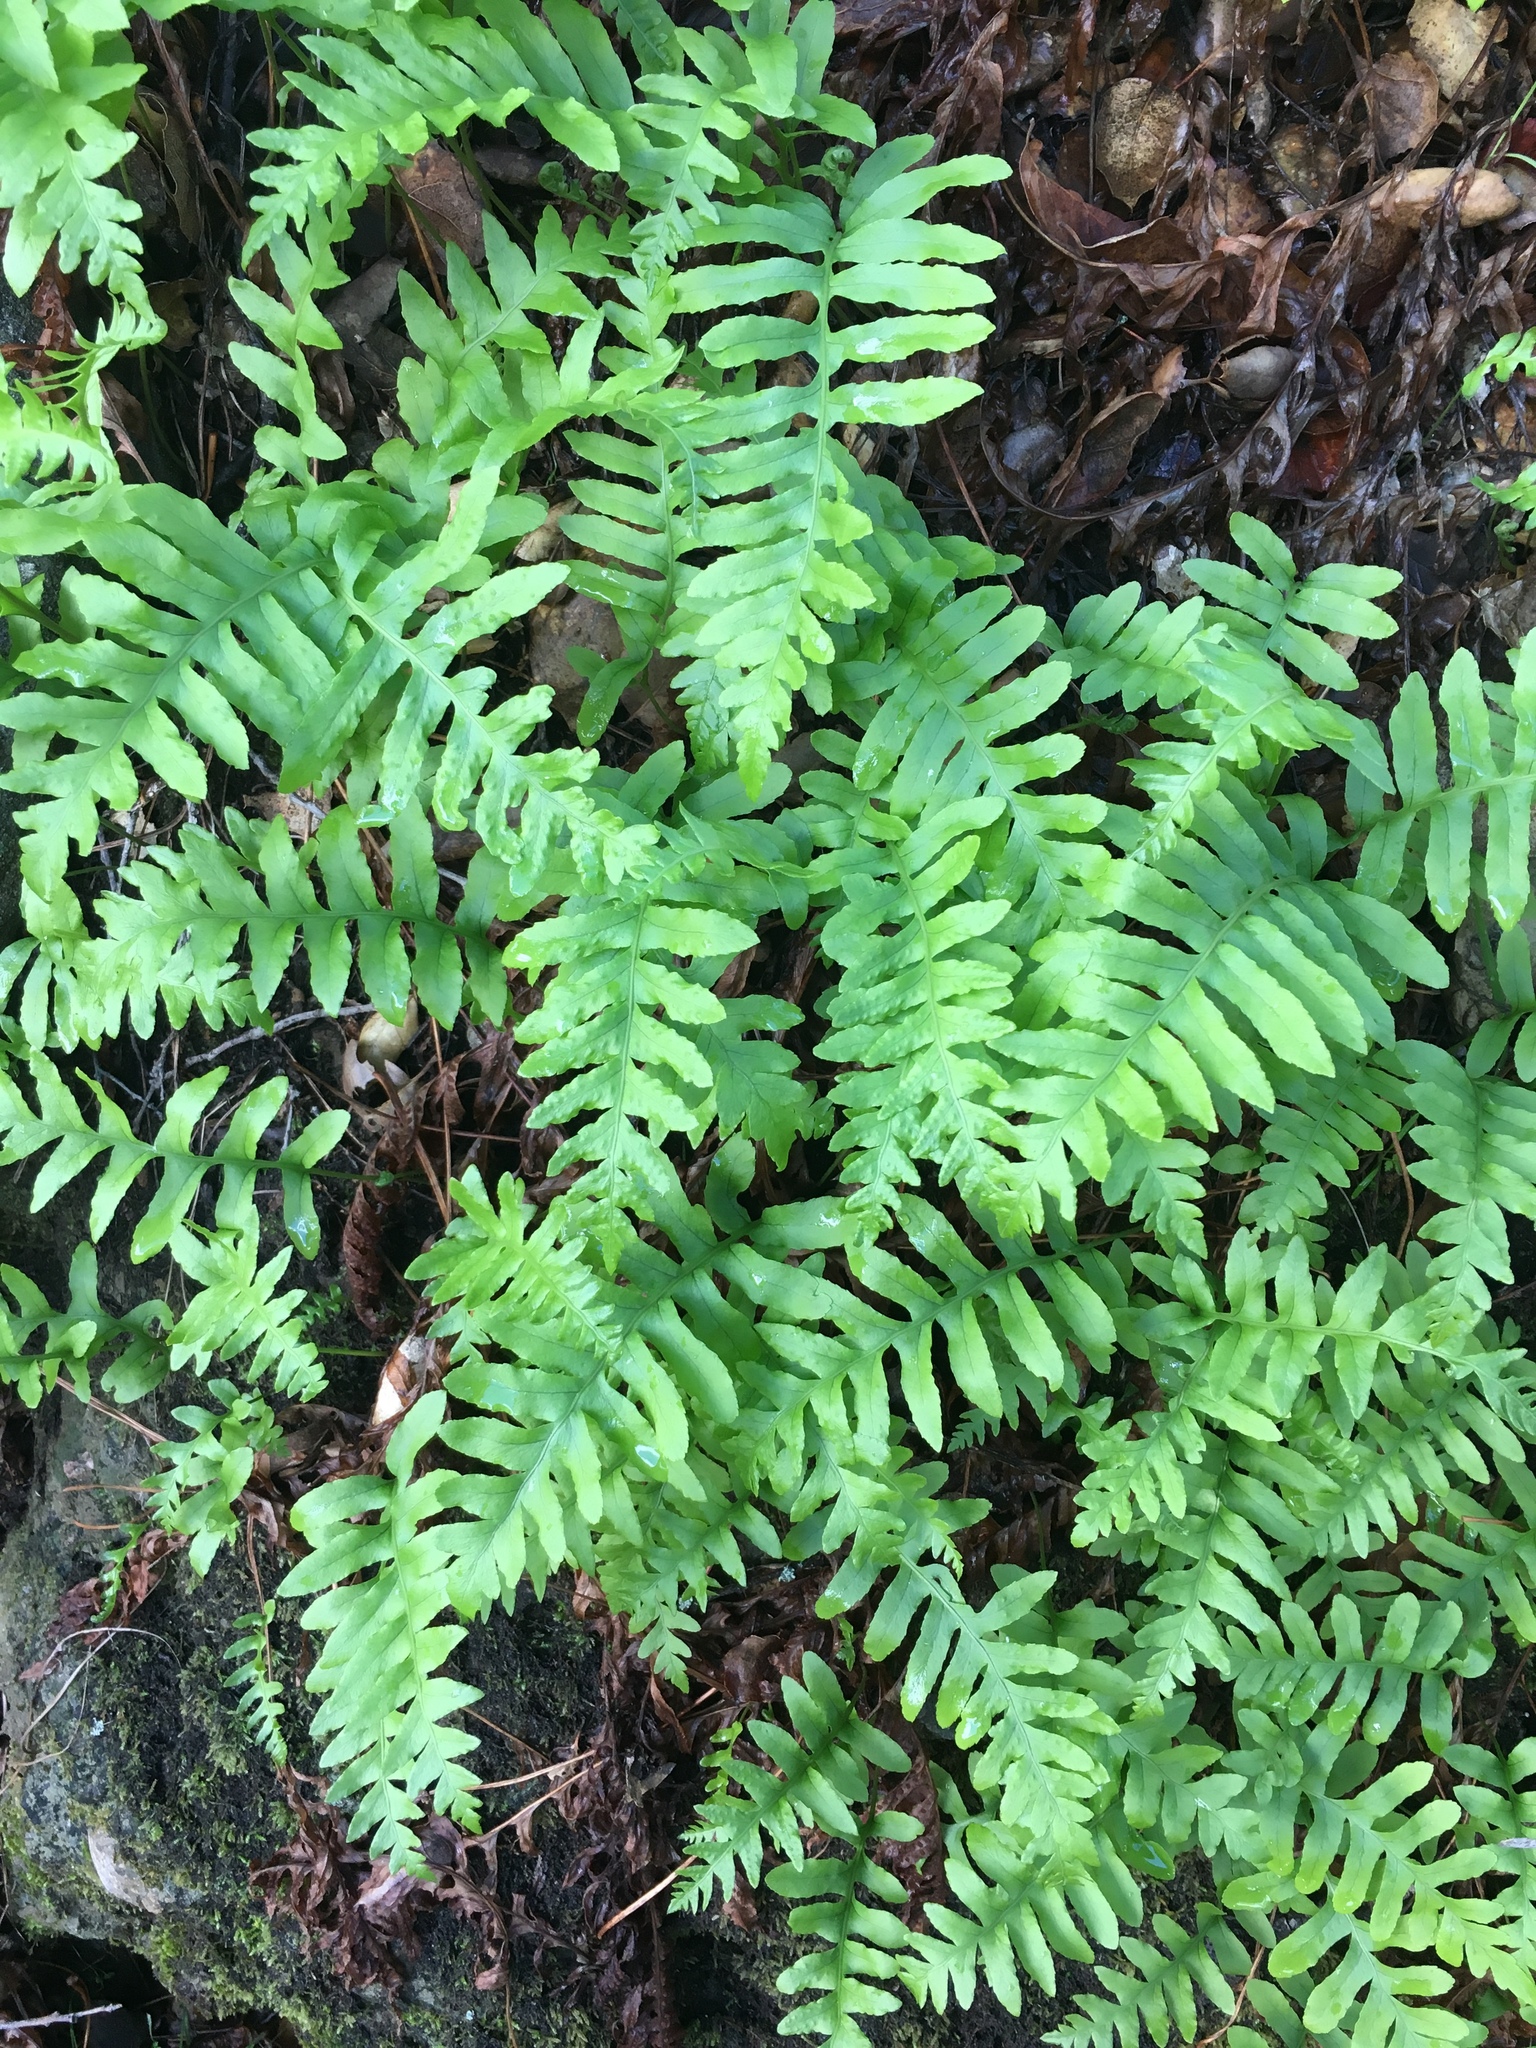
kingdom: Plantae
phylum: Tracheophyta
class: Polypodiopsida
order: Polypodiales
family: Polypodiaceae
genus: Polypodium
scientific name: Polypodium californicum
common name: California polypody
